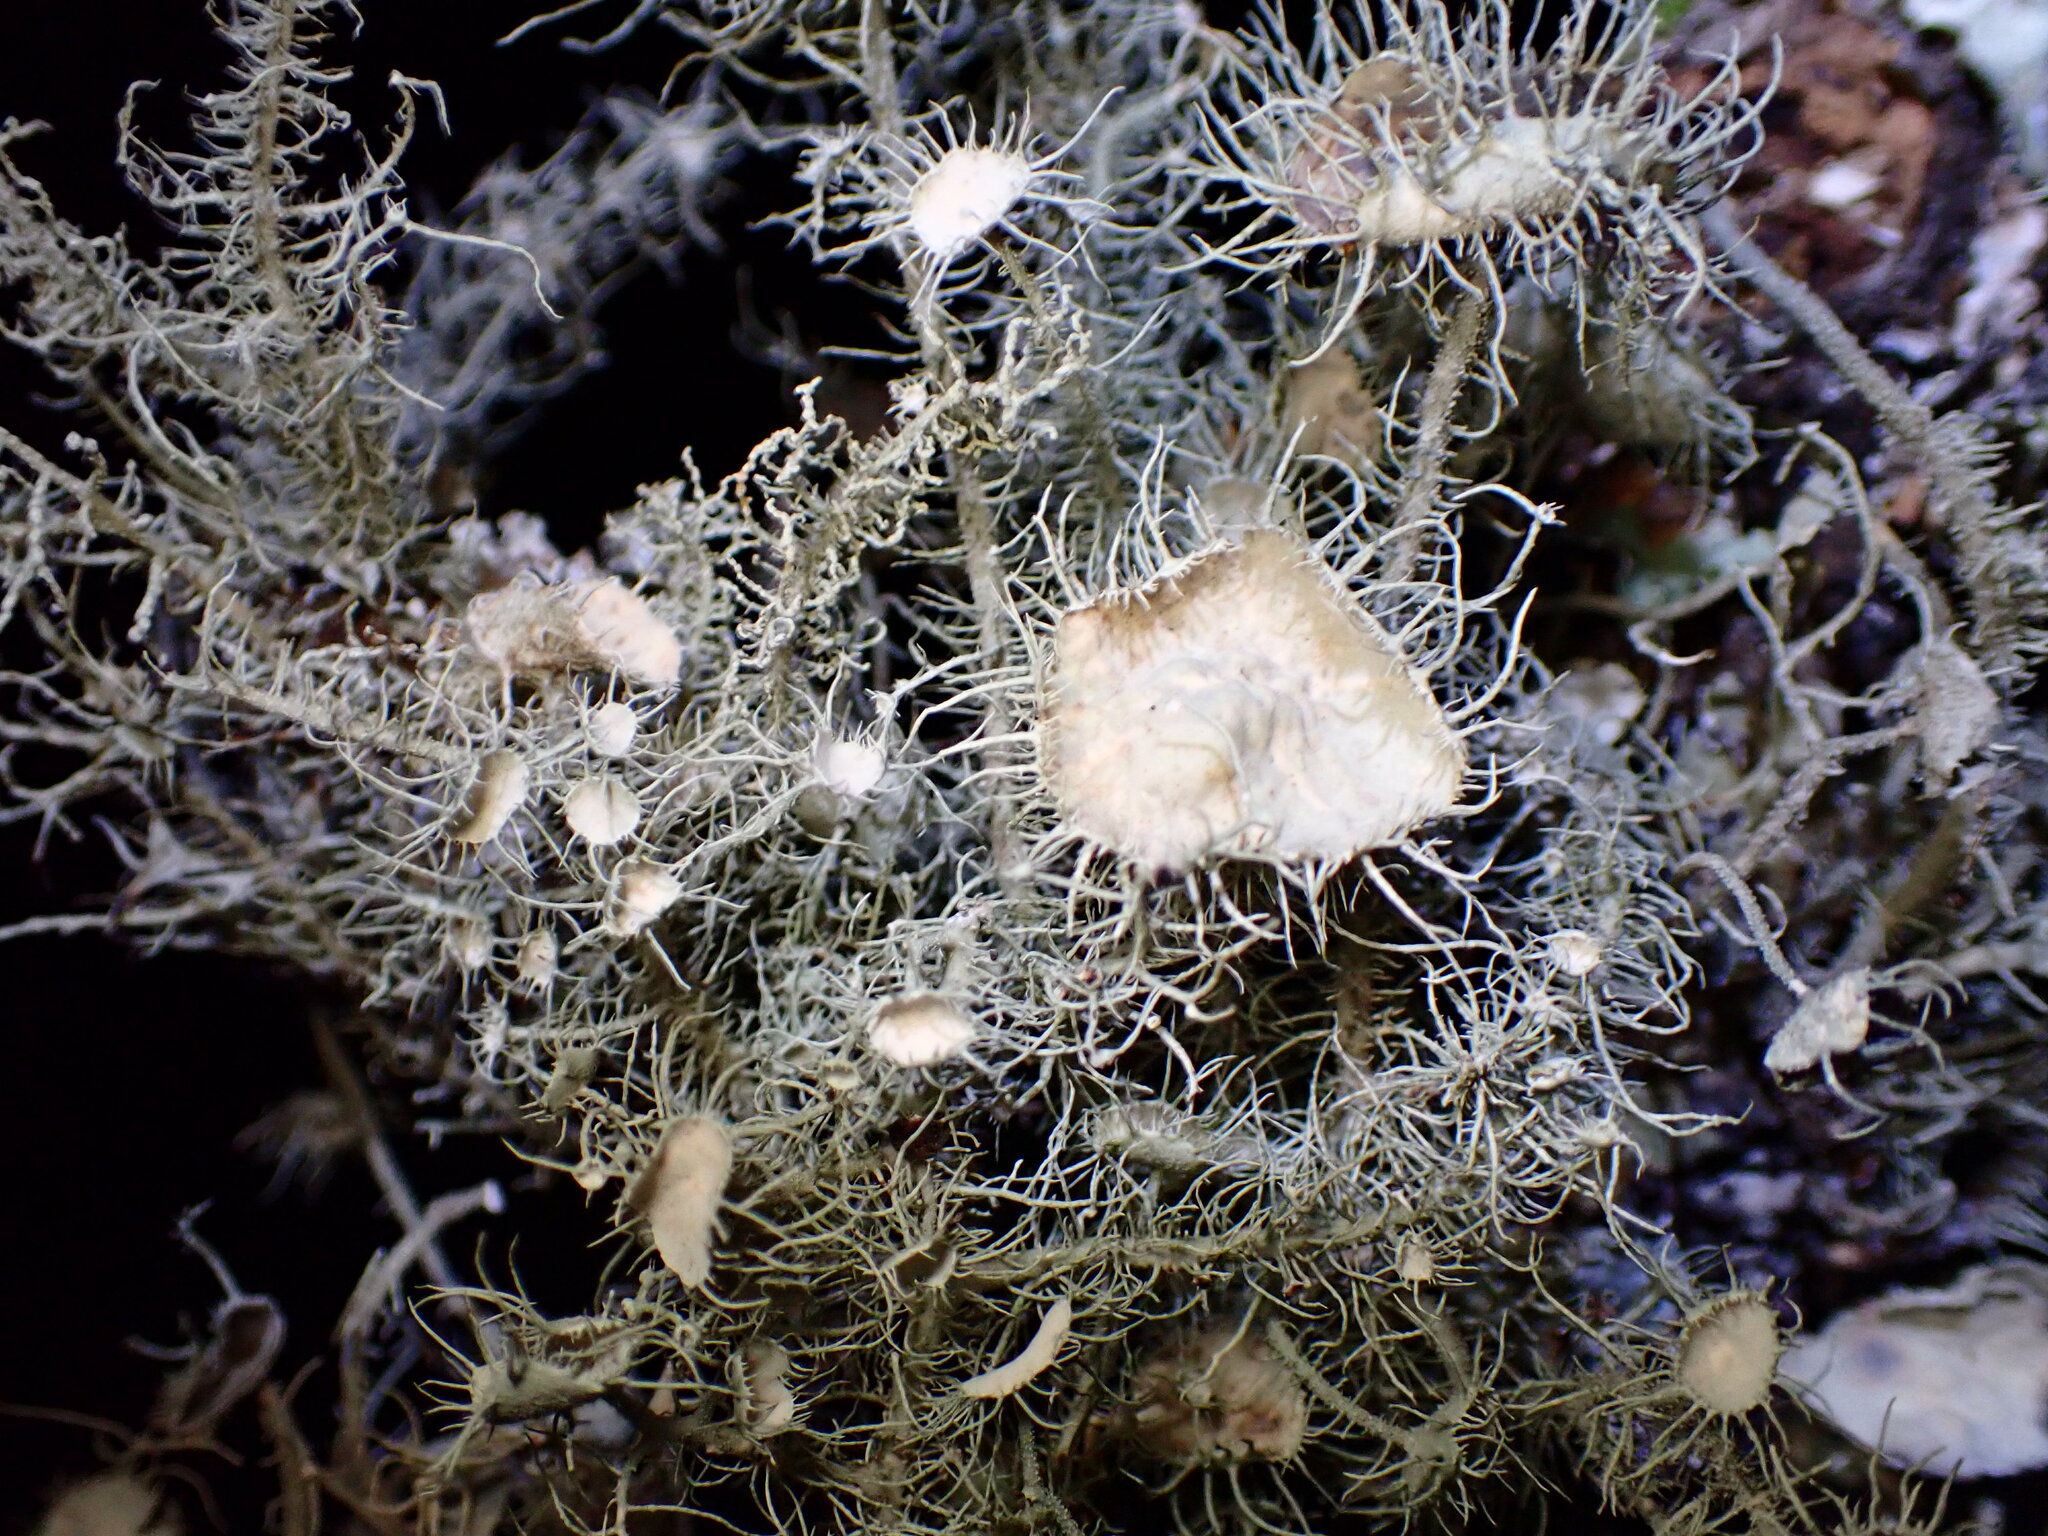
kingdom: Fungi
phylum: Ascomycota
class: Lecanoromycetes
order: Lecanorales
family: Parmeliaceae
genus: Usnea
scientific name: Usnea intermedia
